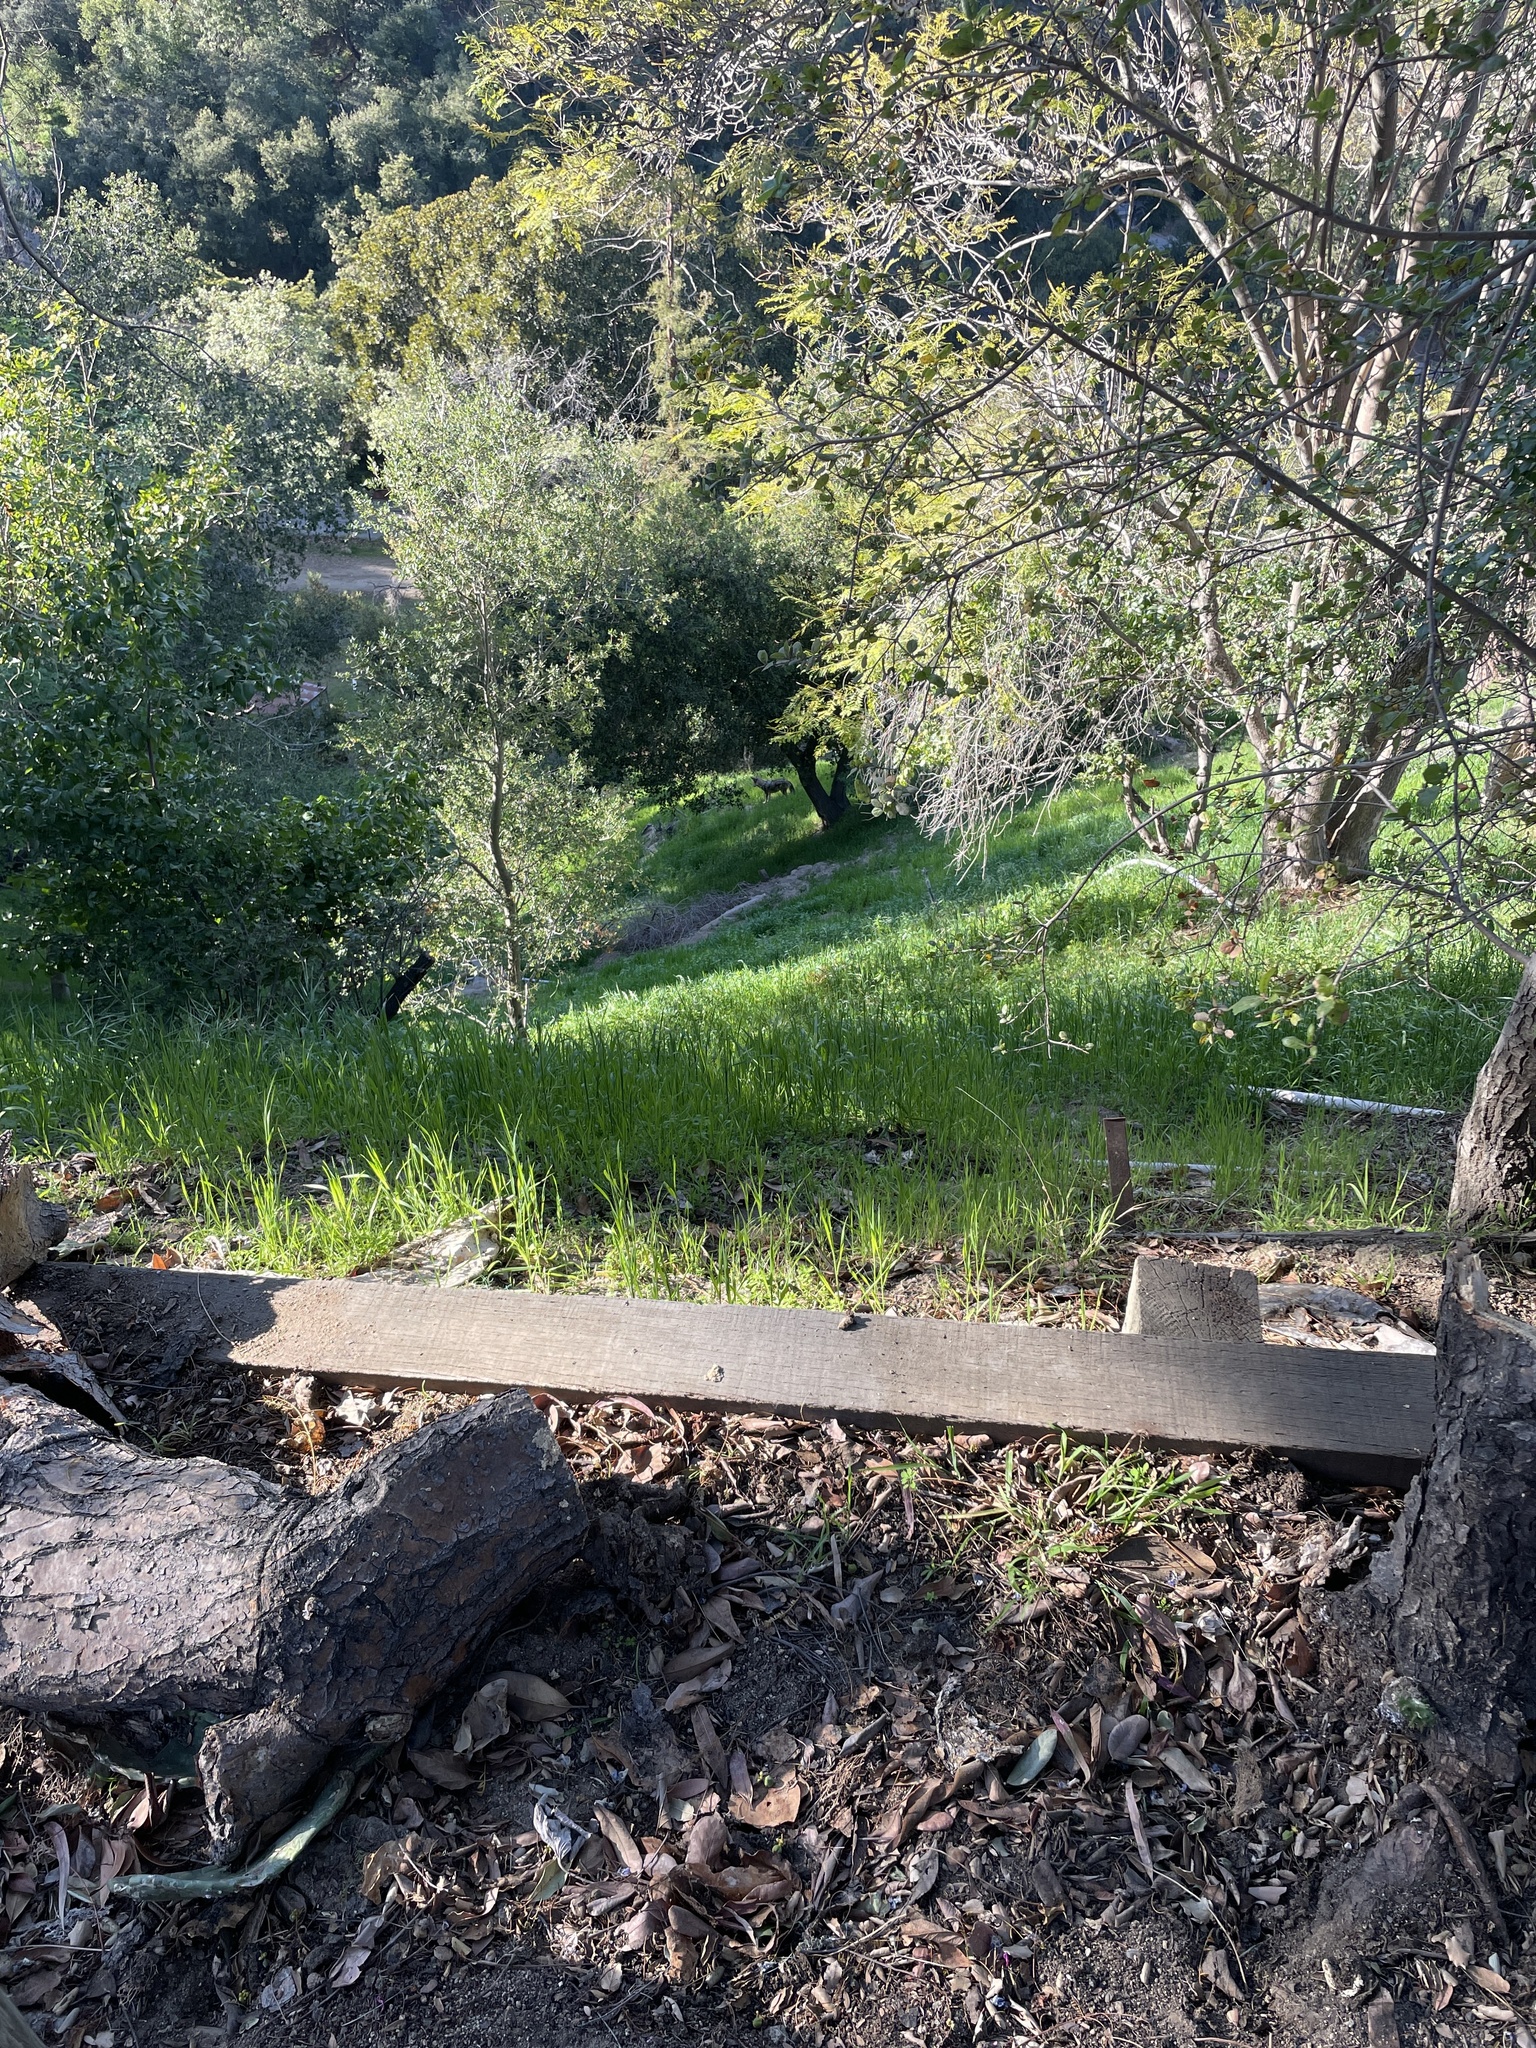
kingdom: Animalia
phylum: Chordata
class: Mammalia
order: Carnivora
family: Canidae
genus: Canis
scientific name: Canis latrans
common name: Coyote
